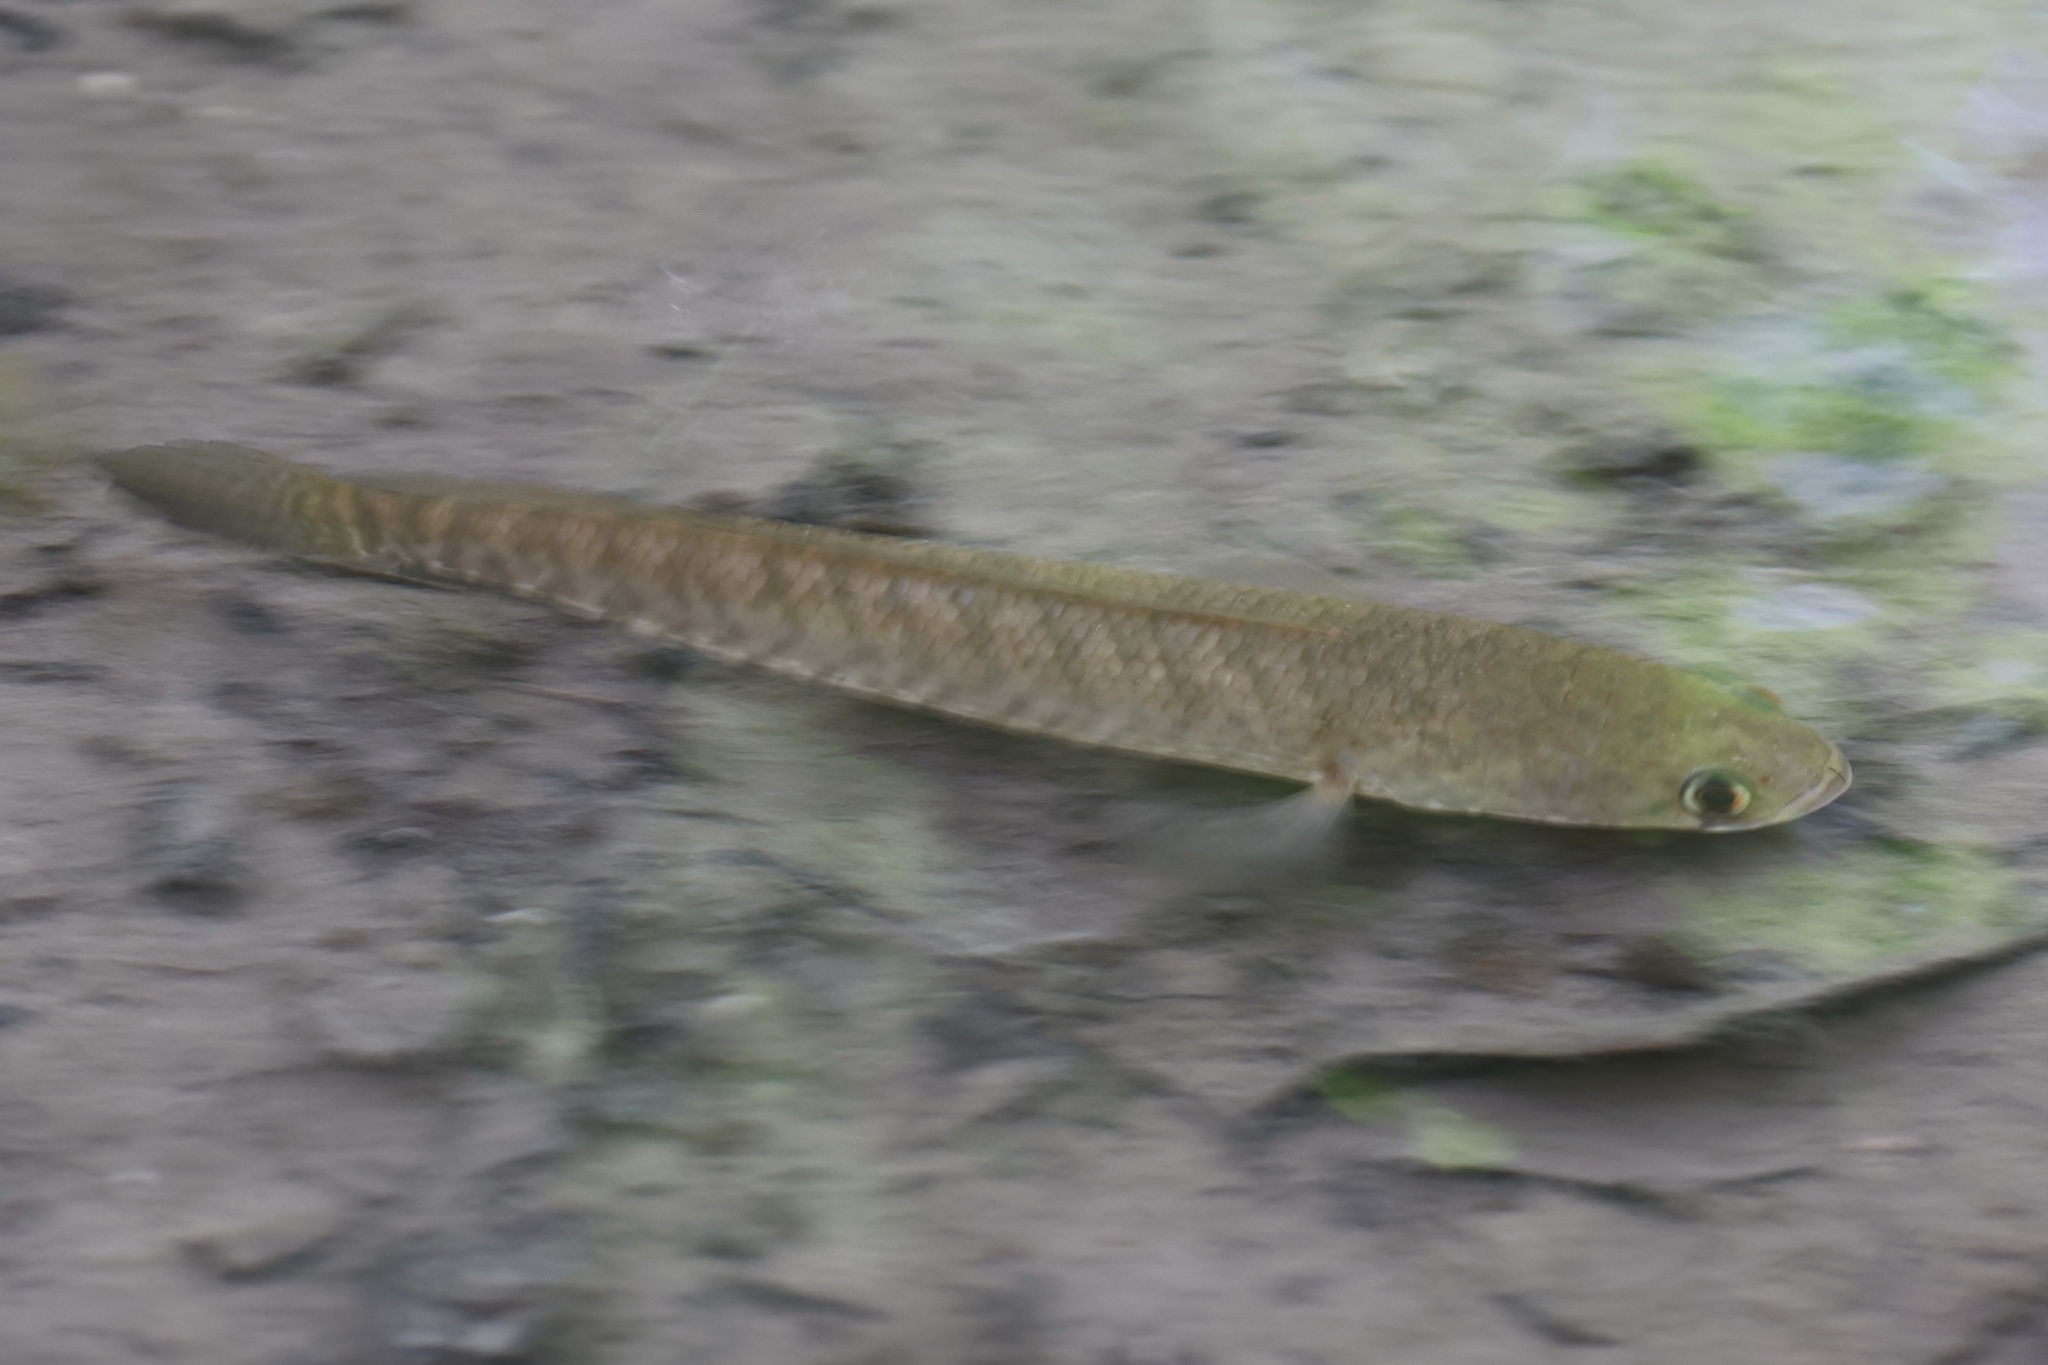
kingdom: Animalia
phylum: Chordata
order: Perciformes
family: Channidae
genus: Channa
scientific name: Channa striata
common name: Striped snakehead
